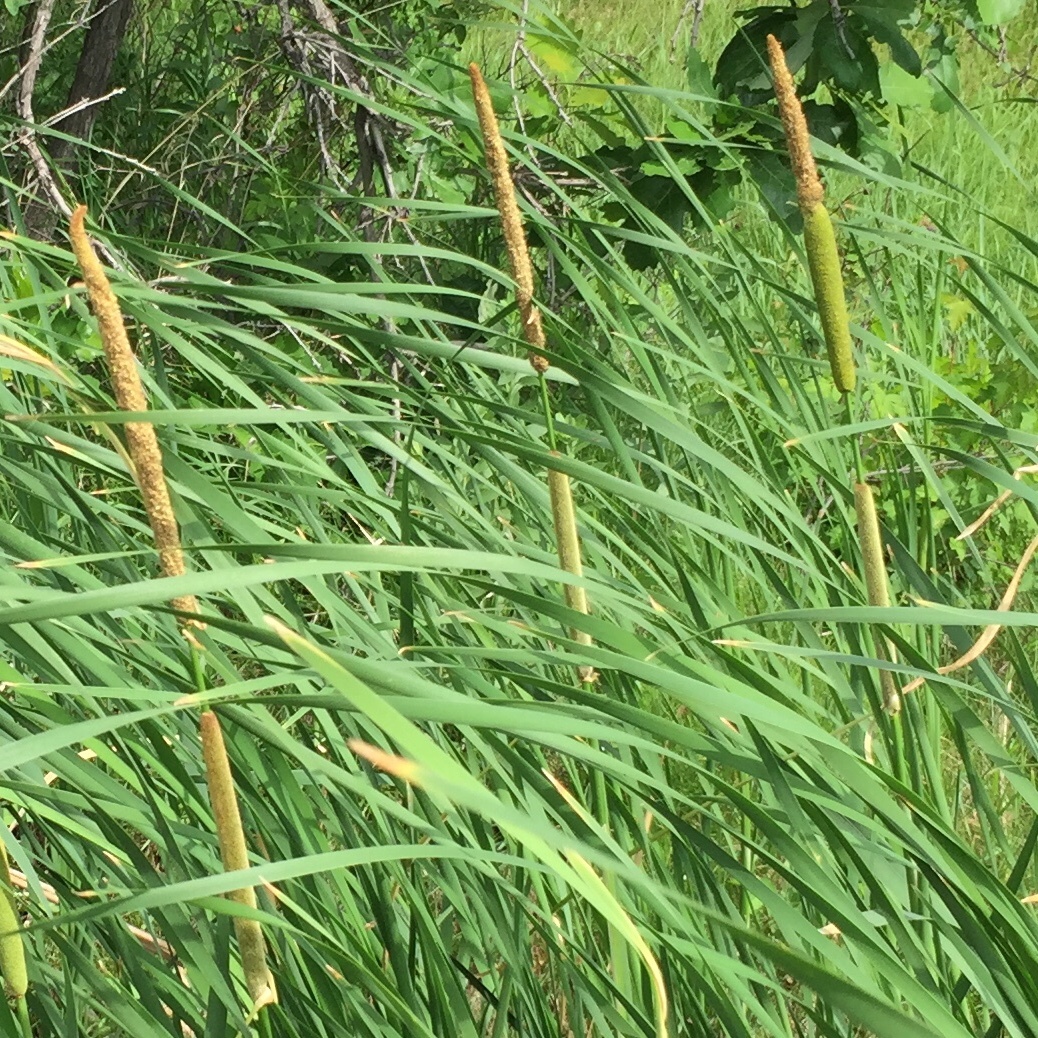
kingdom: Plantae
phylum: Tracheophyta
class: Liliopsida
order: Poales
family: Typhaceae
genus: Typha
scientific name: Typha angustifolia
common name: Lesser bulrush
